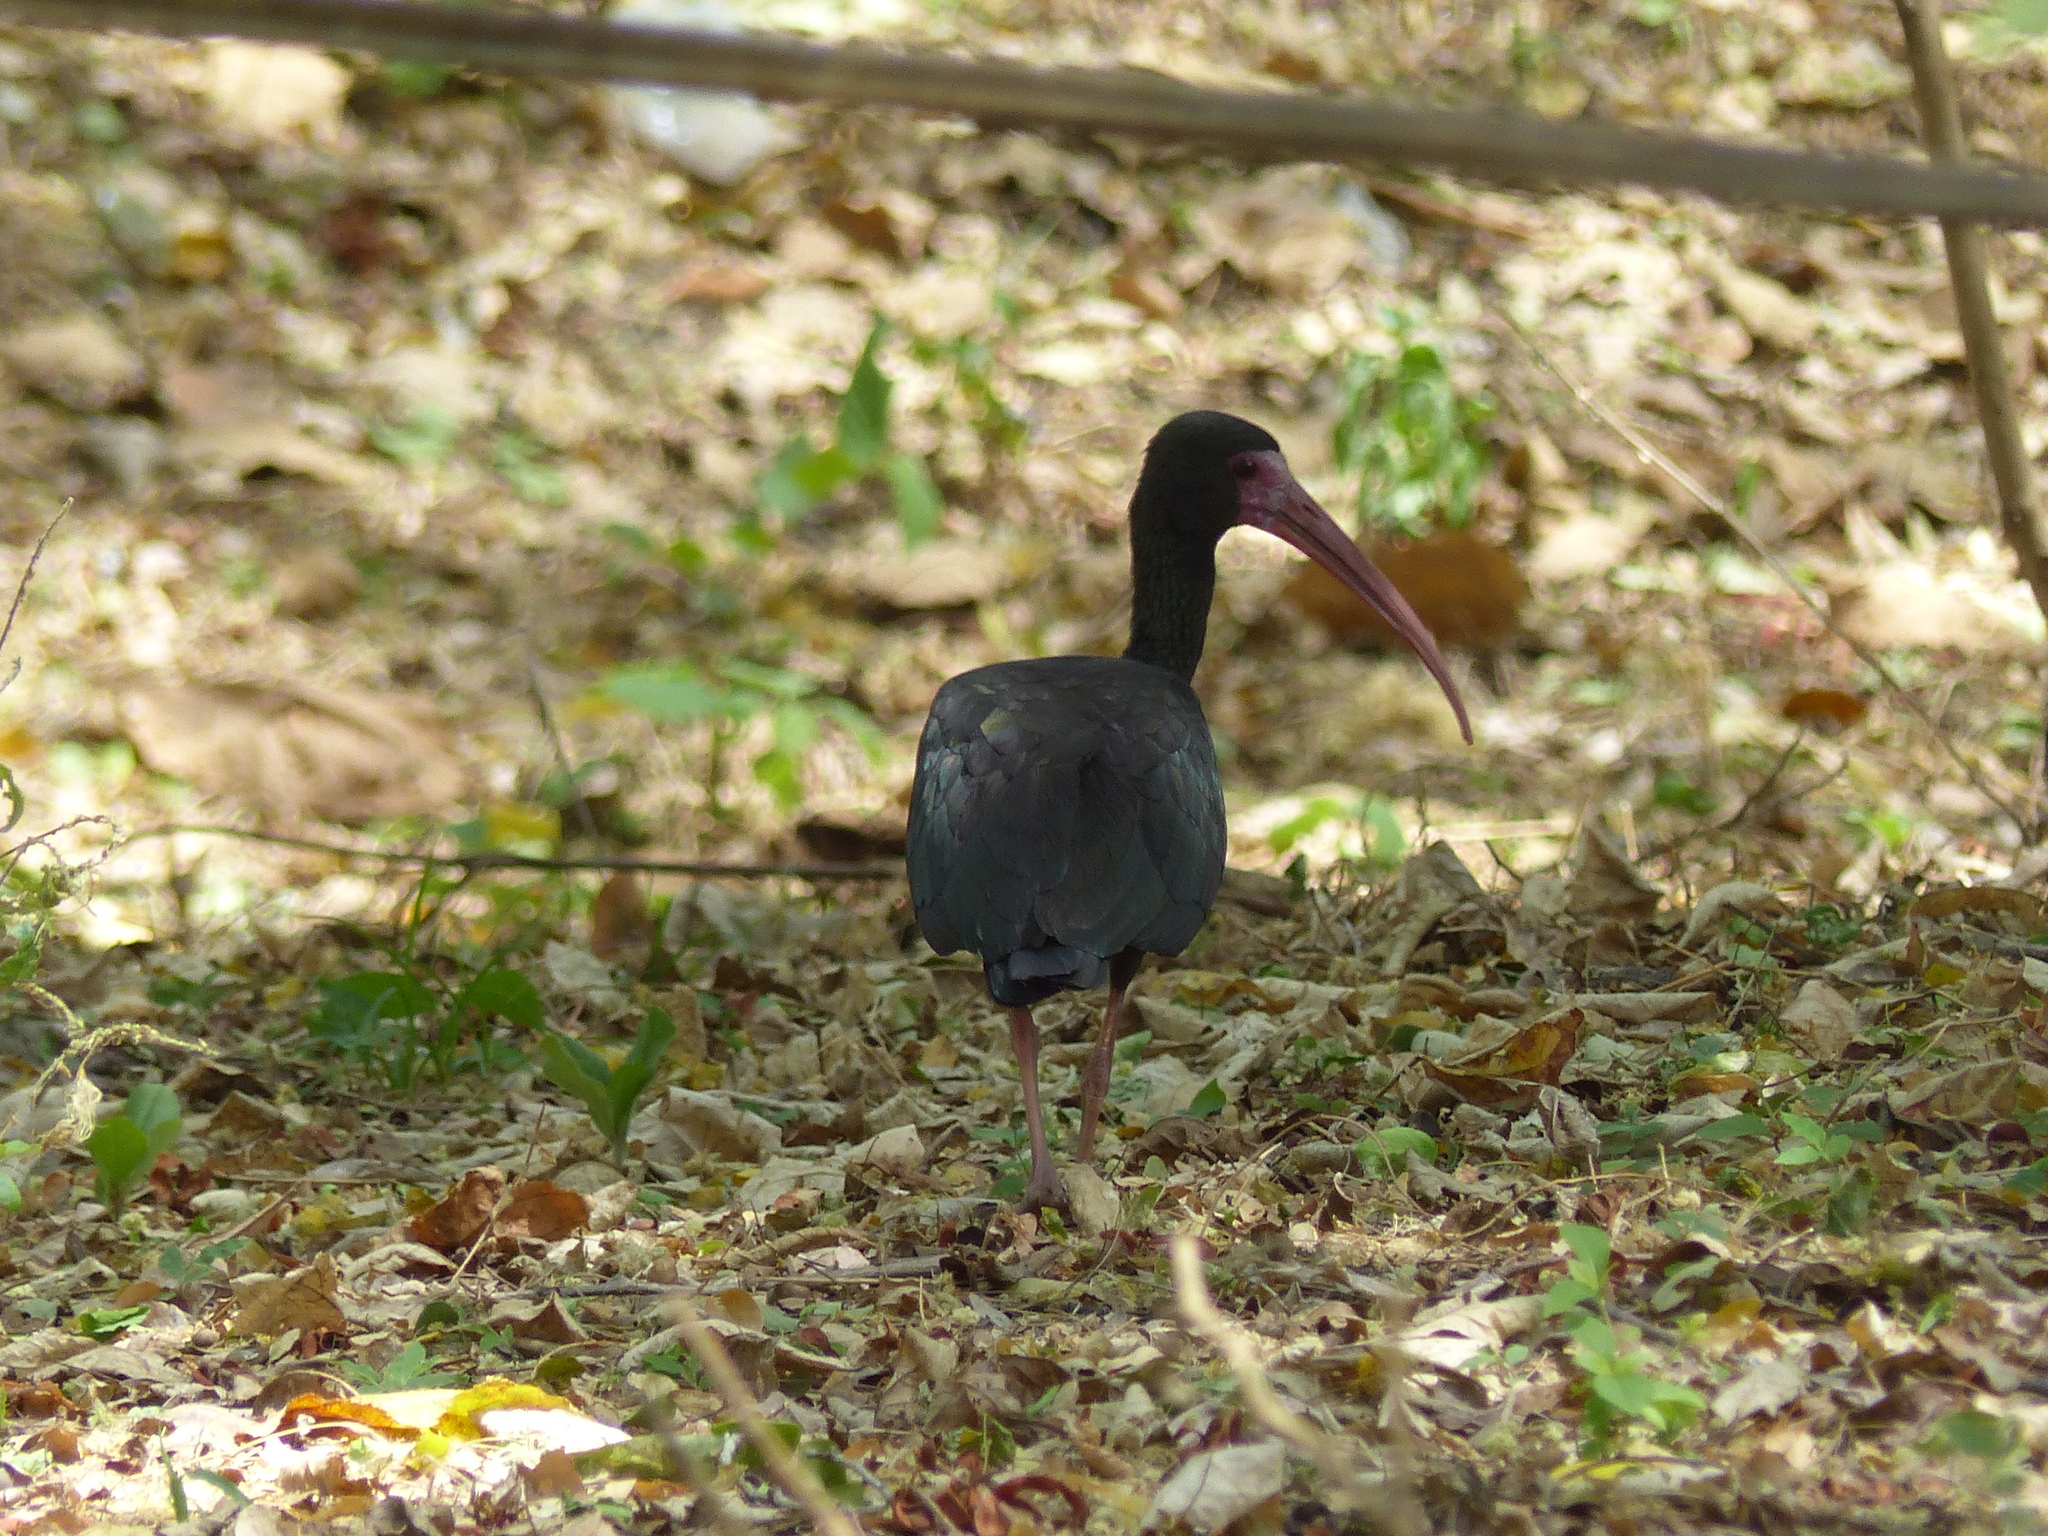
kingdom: Animalia
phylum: Chordata
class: Aves
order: Pelecaniformes
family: Threskiornithidae
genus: Phimosus
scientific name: Phimosus infuscatus
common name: Bare-faced ibis
